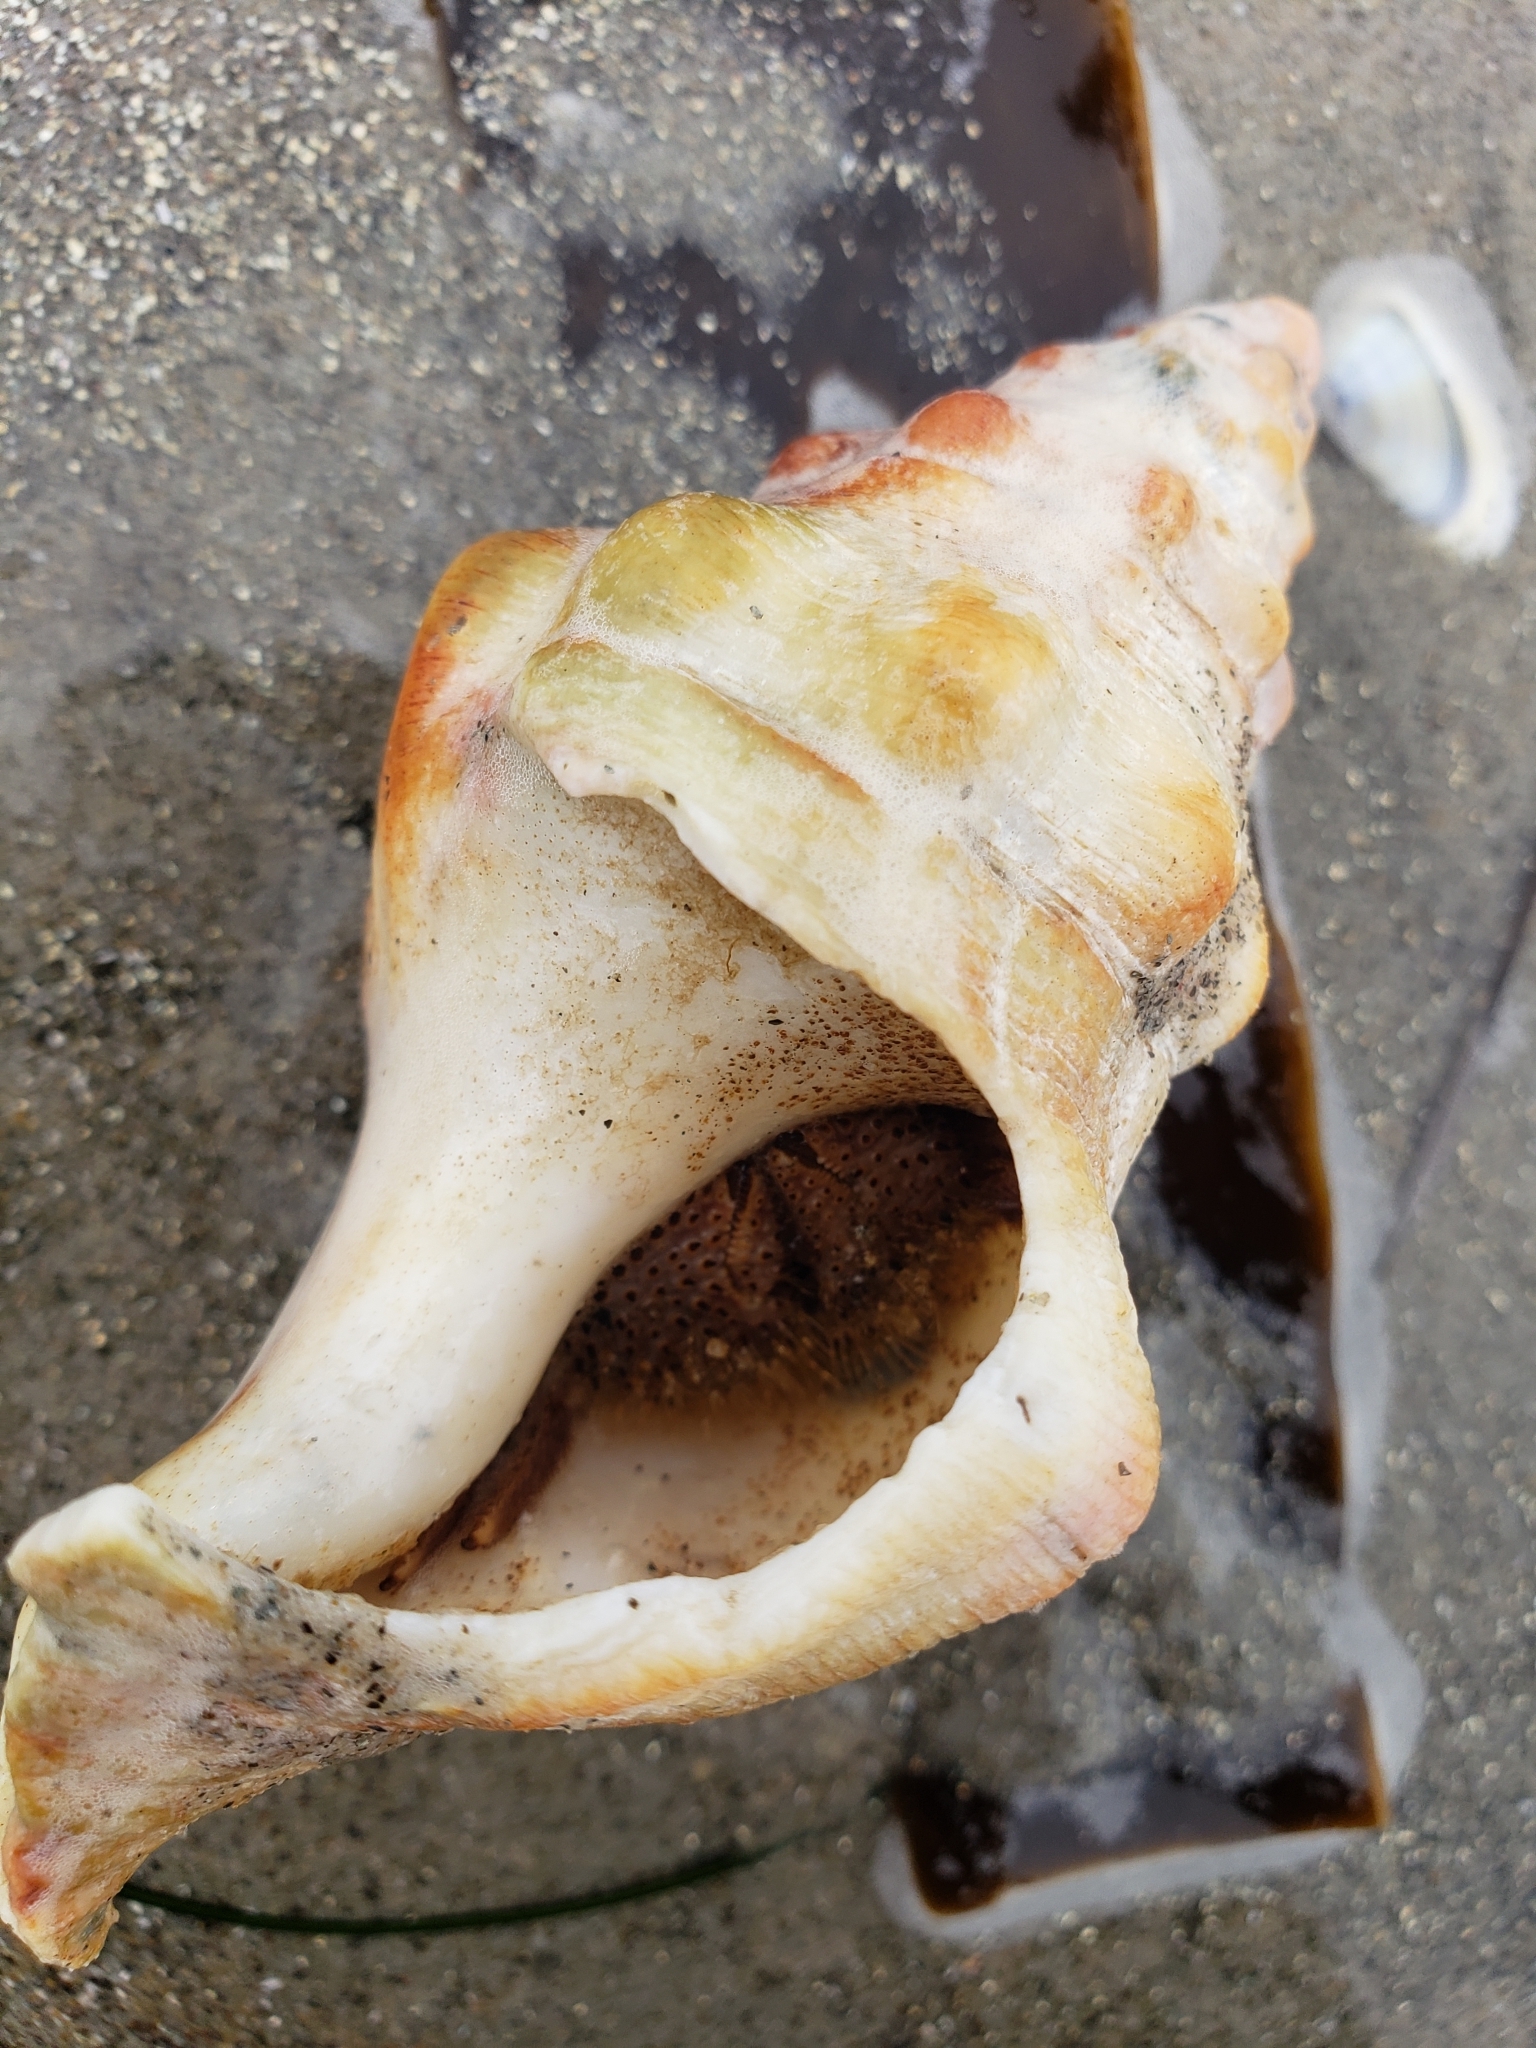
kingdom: Animalia
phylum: Mollusca
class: Gastropoda
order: Neogastropoda
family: Austrosiphonidae
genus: Kelletia
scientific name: Kelletia kelletii
